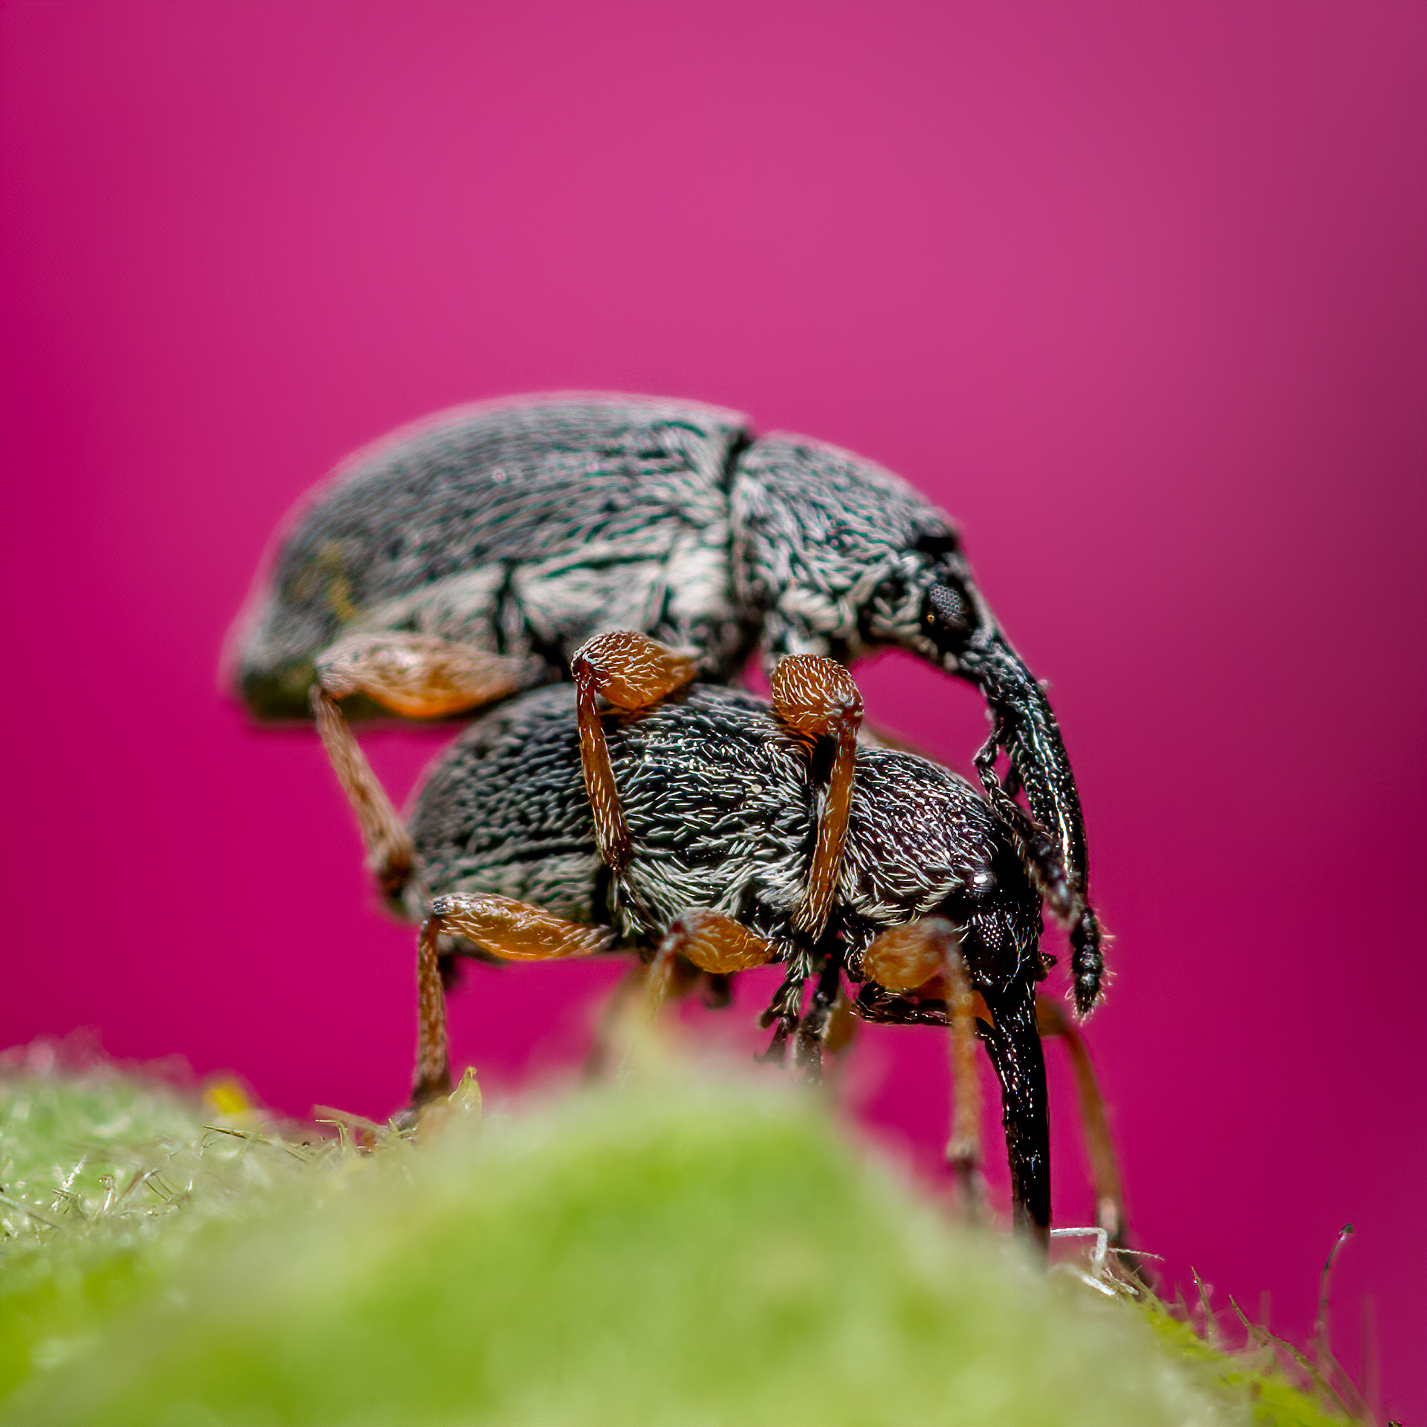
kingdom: Animalia
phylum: Arthropoda
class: Insecta
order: Coleoptera
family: Brentidae
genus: Rhopalapion
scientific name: Rhopalapion longirostre
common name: Hollyhock weevil
